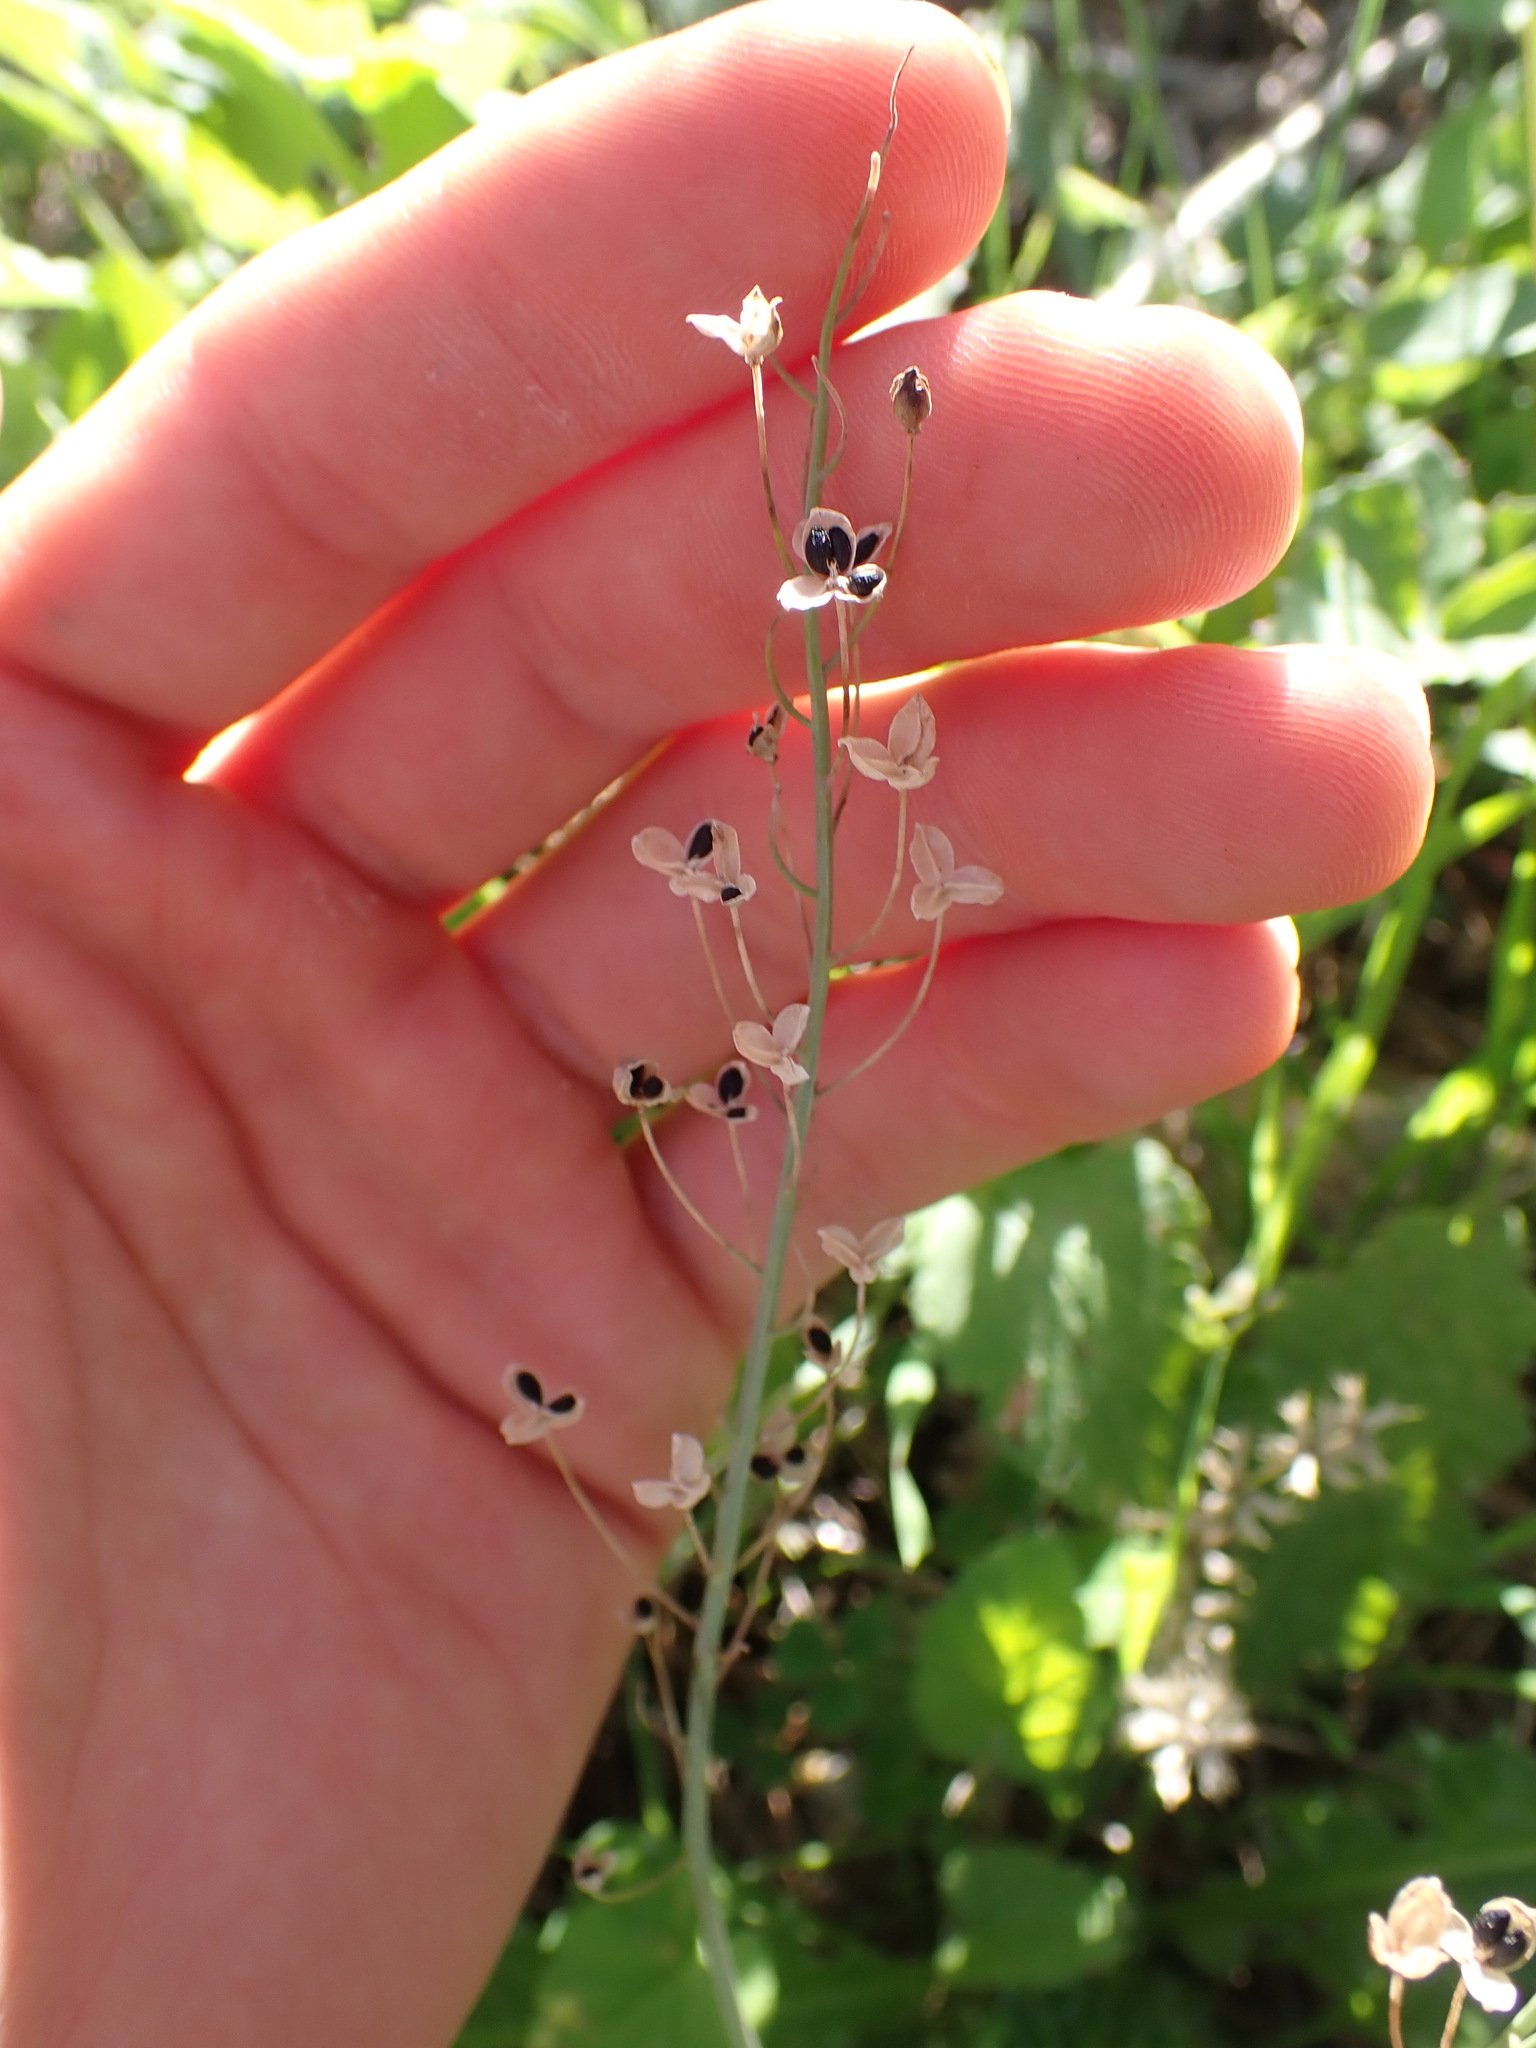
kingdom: Plantae
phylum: Tracheophyta
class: Liliopsida
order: Asparagales
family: Asparagaceae
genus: Prospero
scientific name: Prospero autumnale
